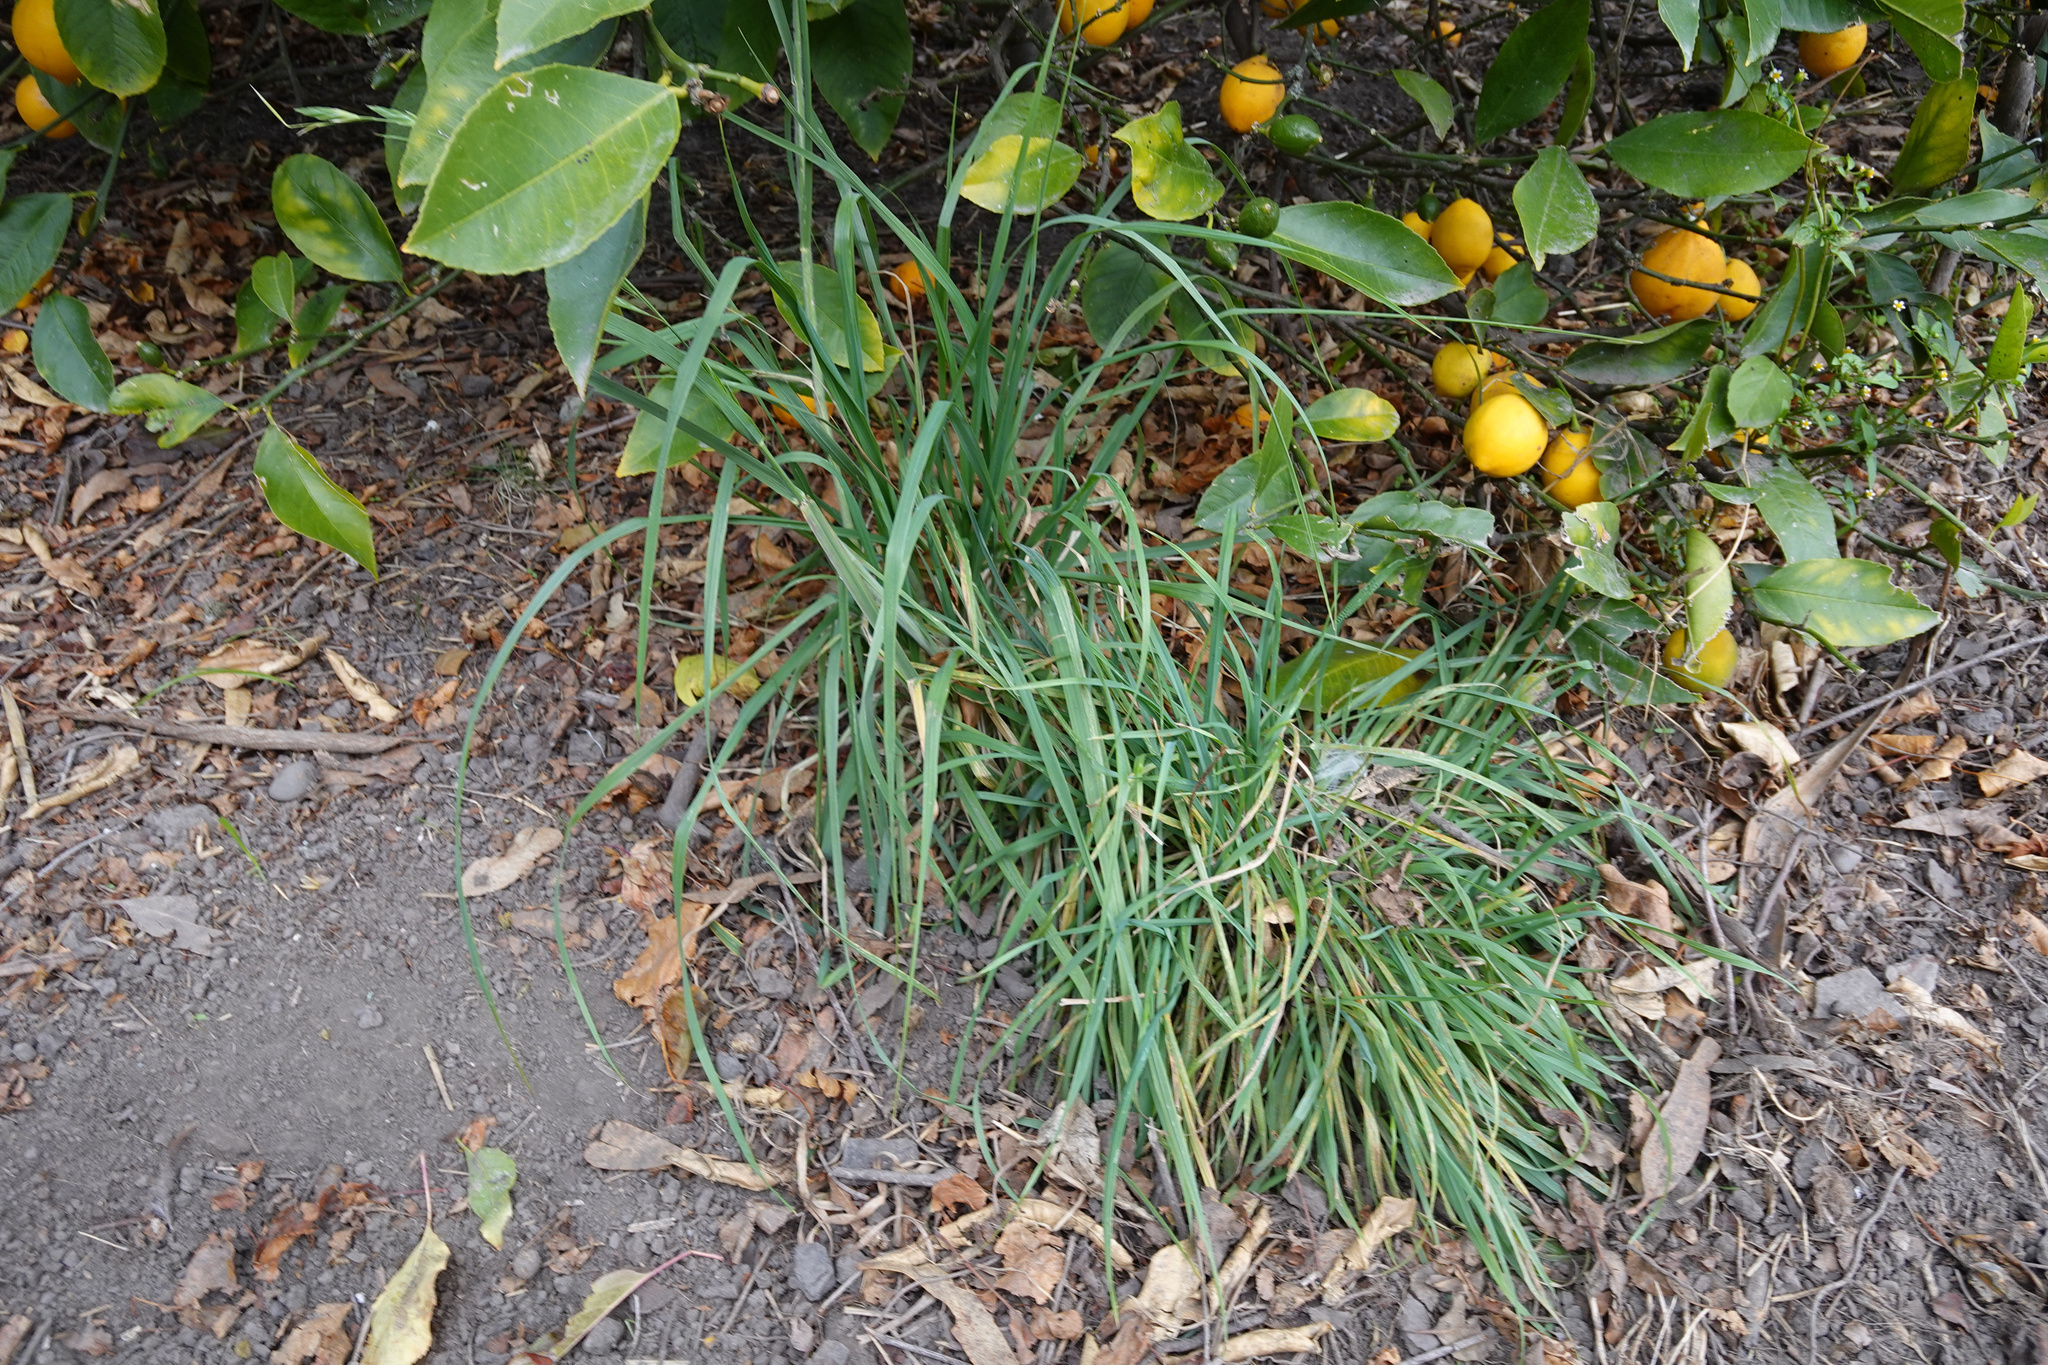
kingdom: Plantae
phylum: Tracheophyta
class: Liliopsida
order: Poales
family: Poaceae
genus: Bromus
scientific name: Bromus catharticus
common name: Rescuegrass
